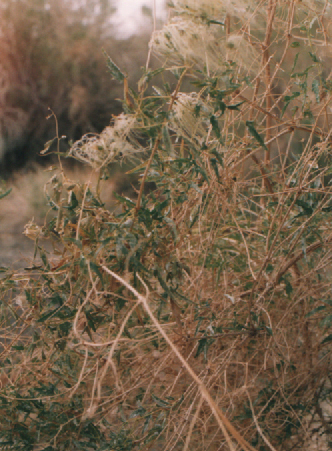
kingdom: Plantae
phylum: Tracheophyta
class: Magnoliopsida
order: Ranunculales
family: Ranunculaceae
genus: Clematis
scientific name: Clematis songorica
